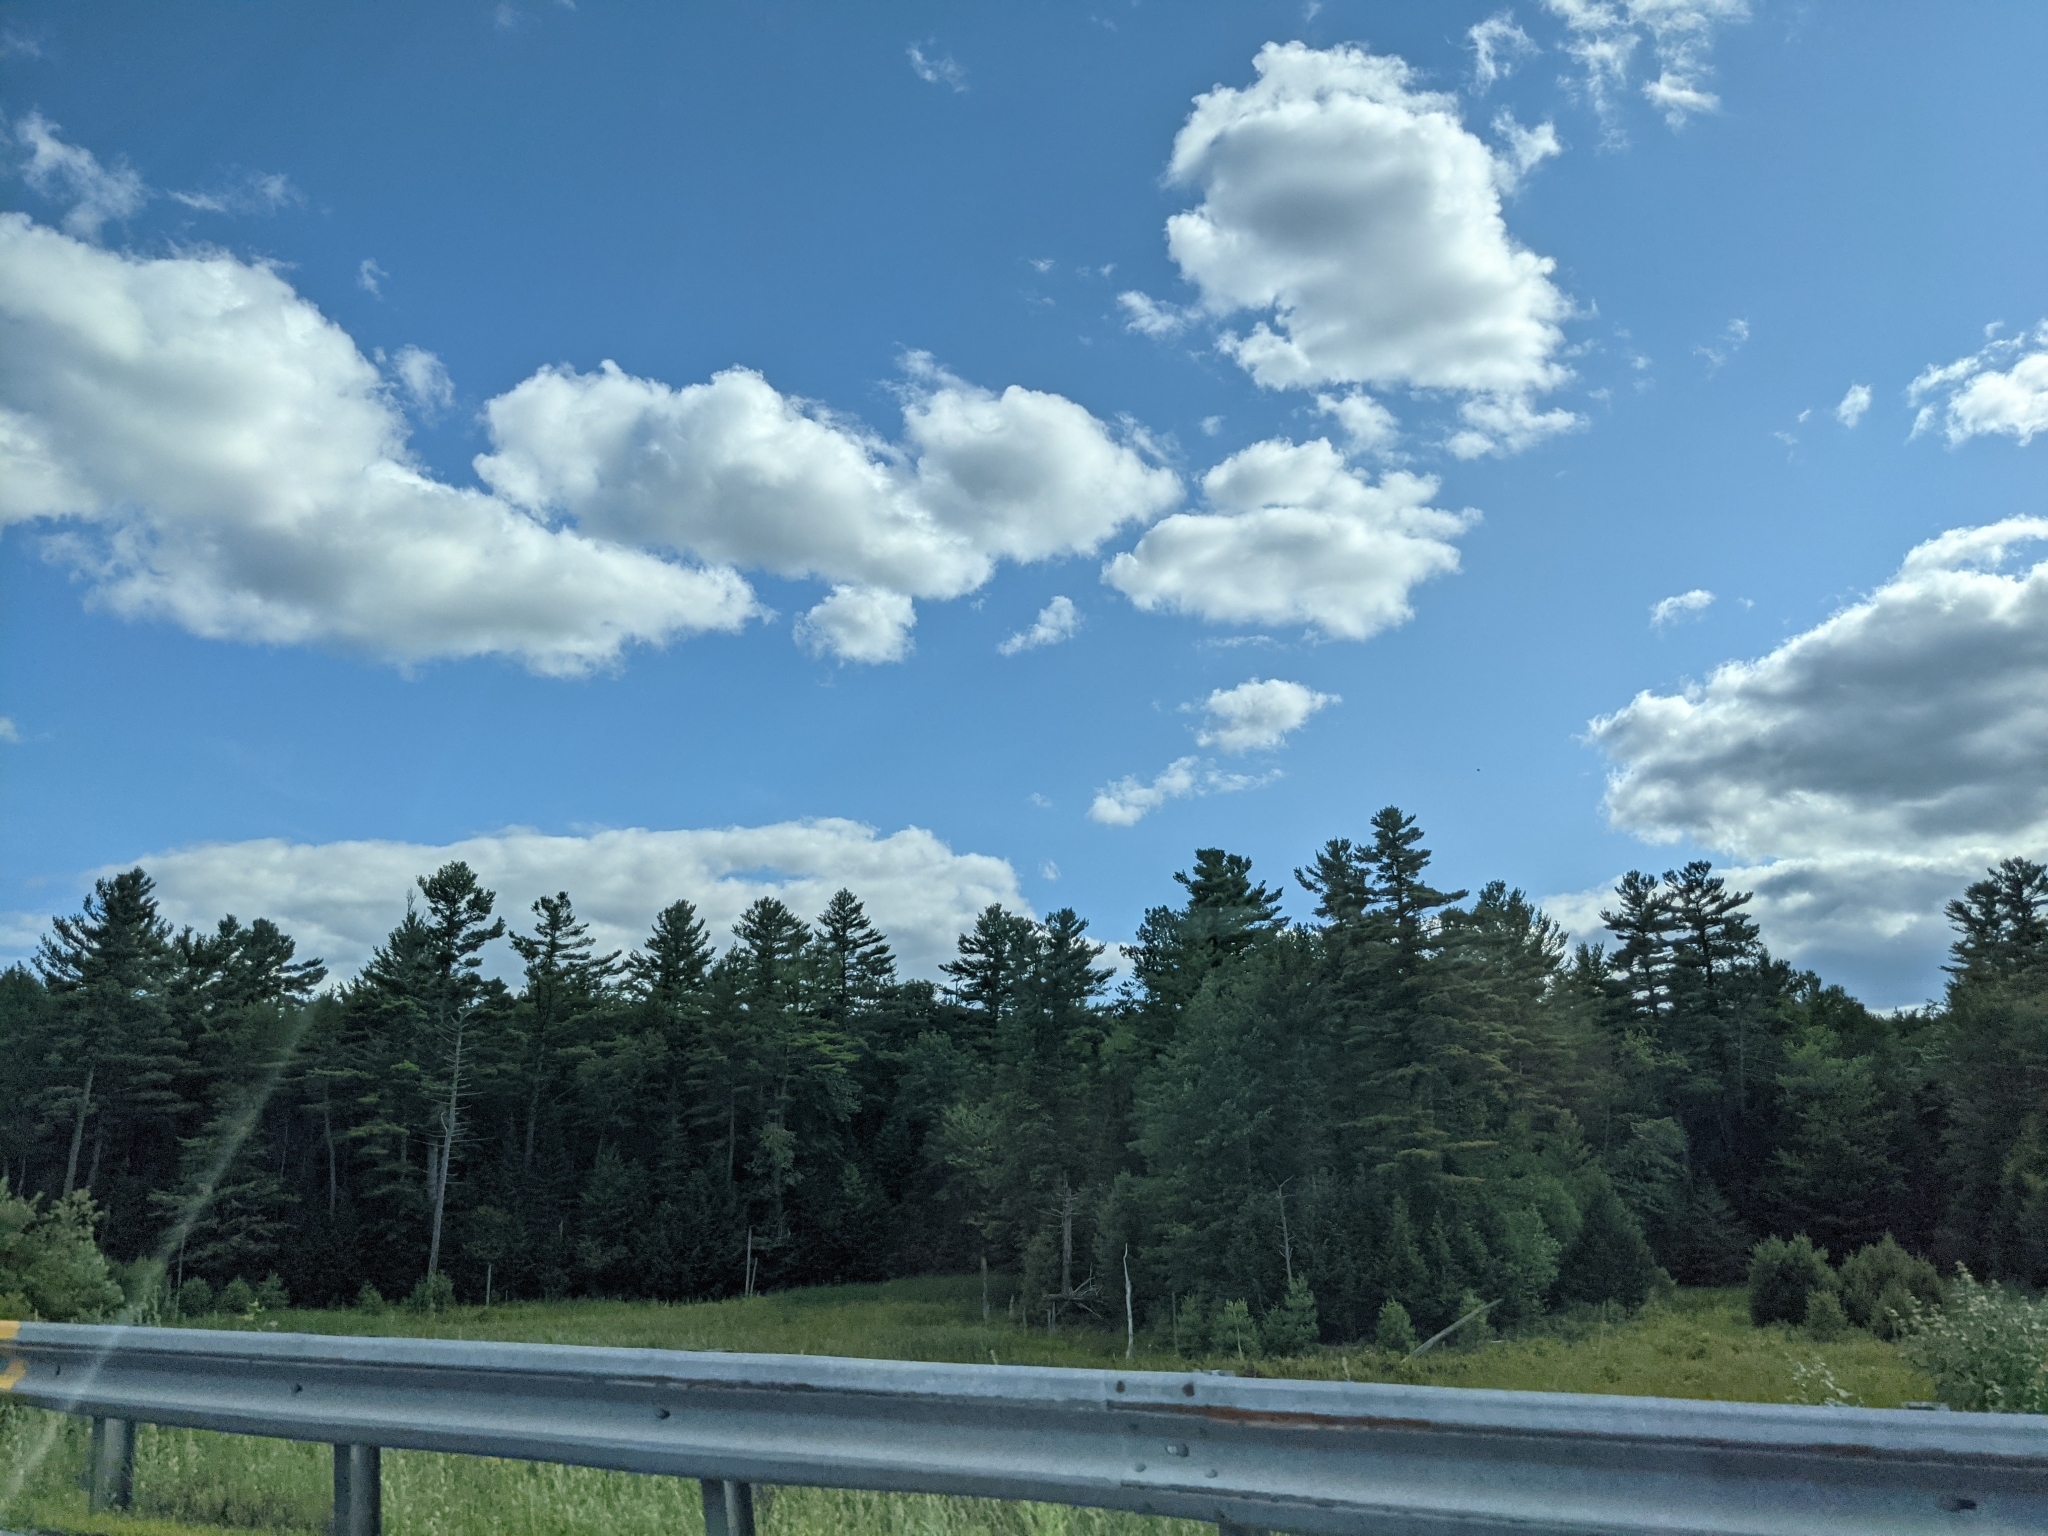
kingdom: Plantae
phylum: Tracheophyta
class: Pinopsida
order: Pinales
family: Pinaceae
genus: Pinus
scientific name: Pinus strobus
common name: Weymouth pine
